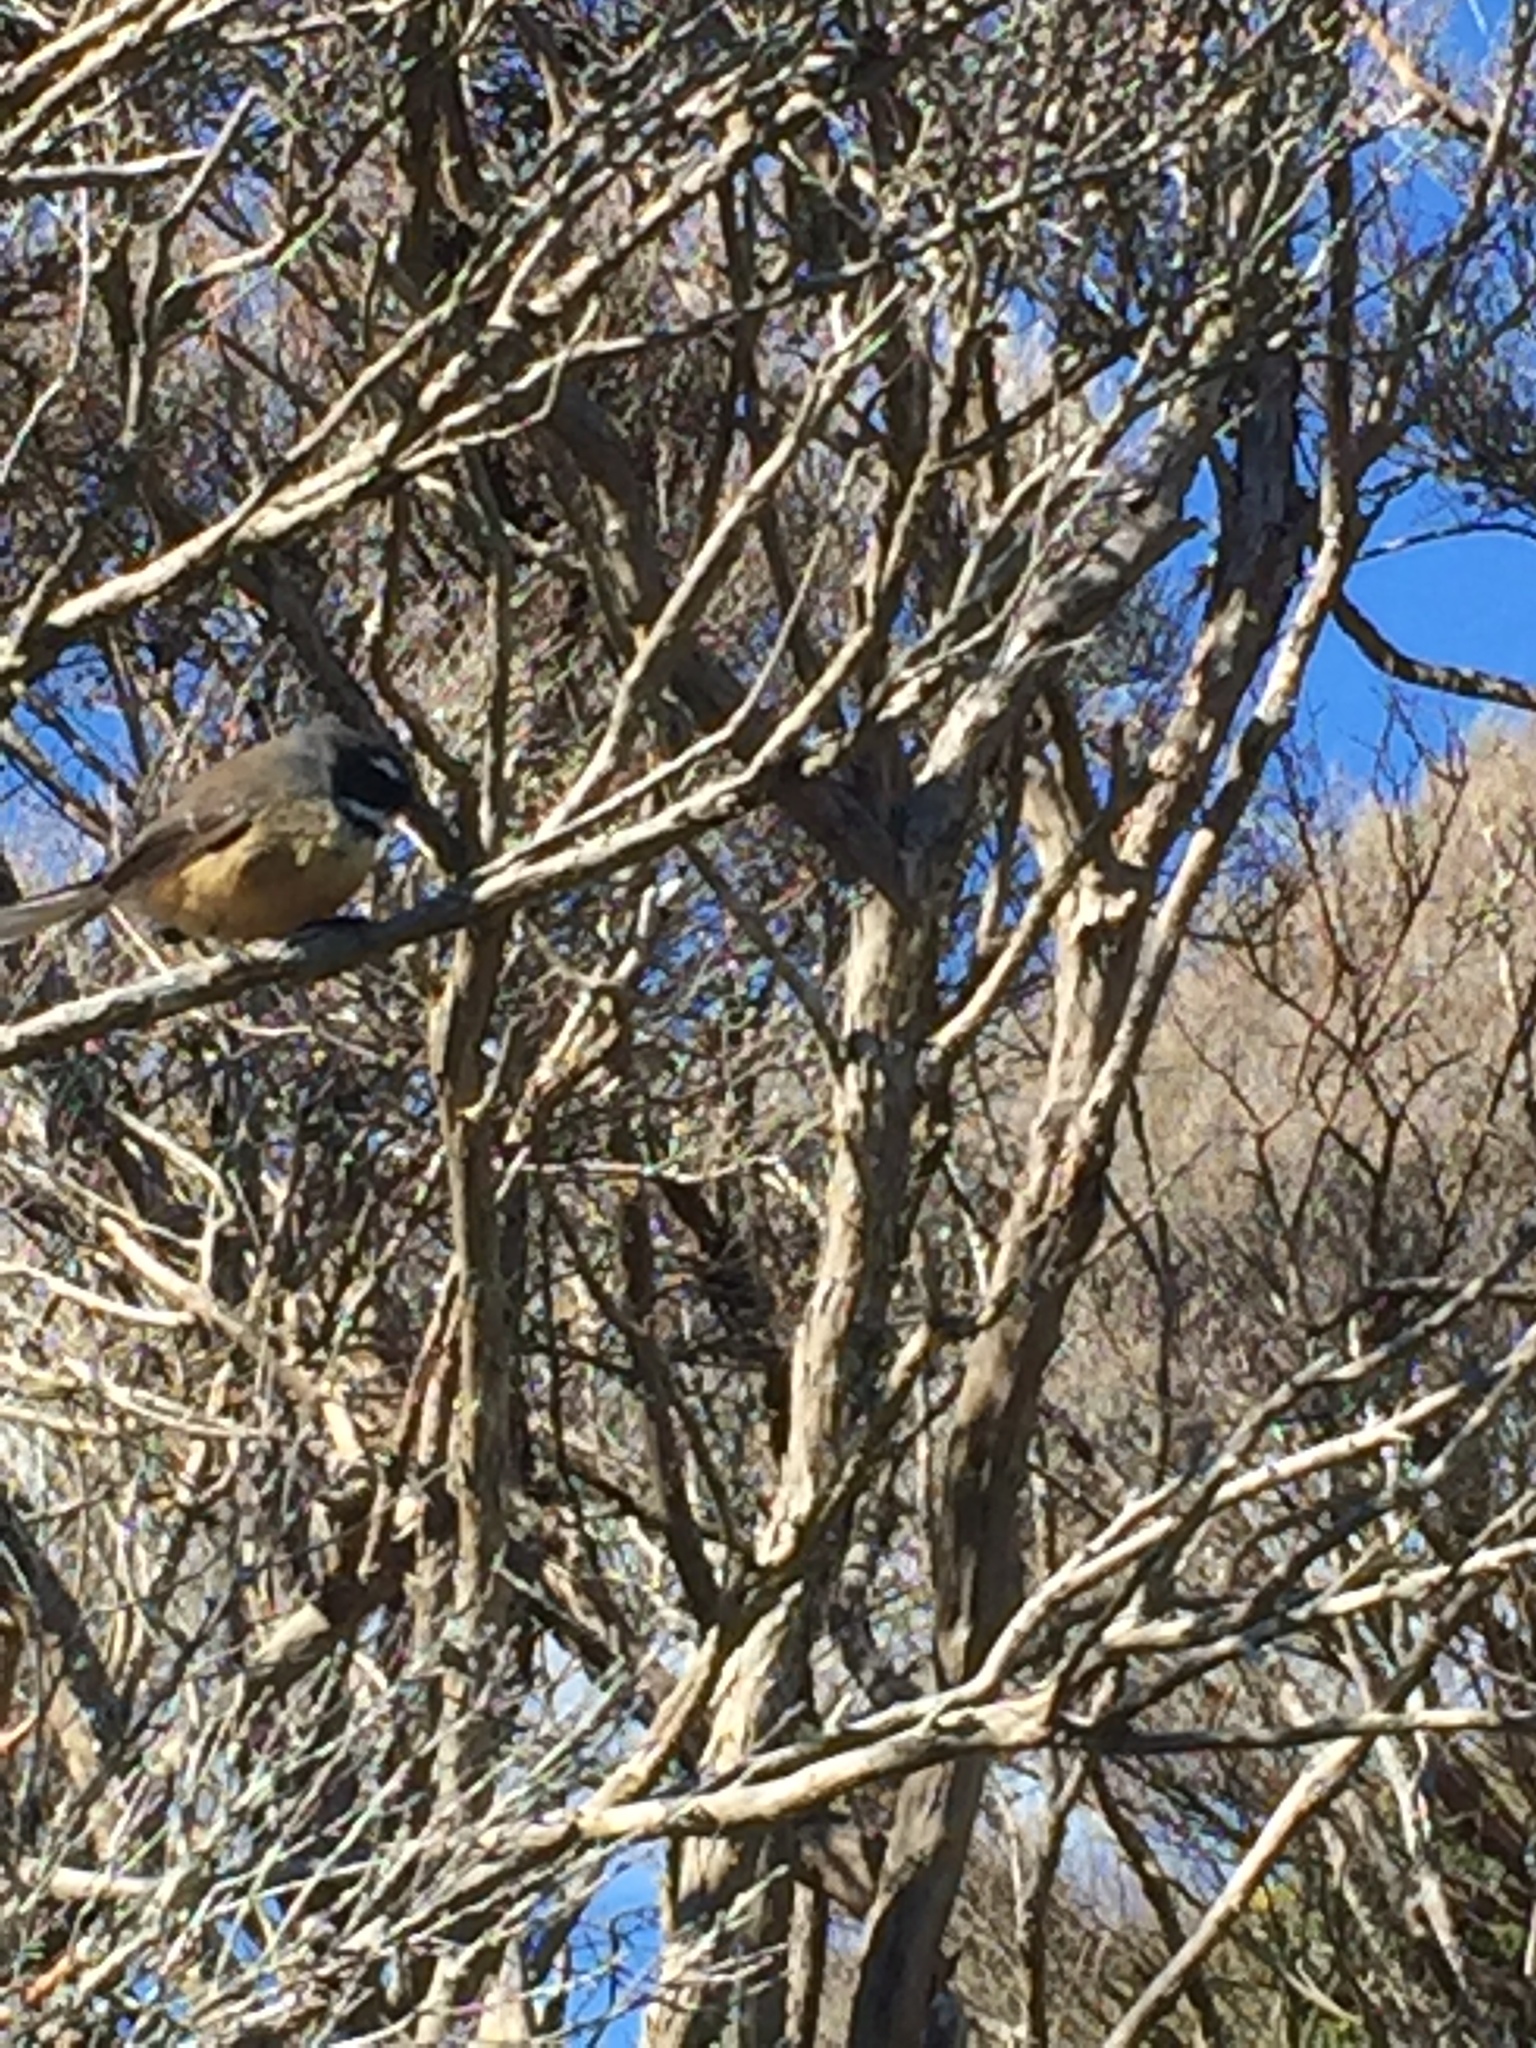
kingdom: Animalia
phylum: Chordata
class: Aves
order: Passeriformes
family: Rhipiduridae
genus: Rhipidura
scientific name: Rhipidura fuliginosa
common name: New zealand fantail
